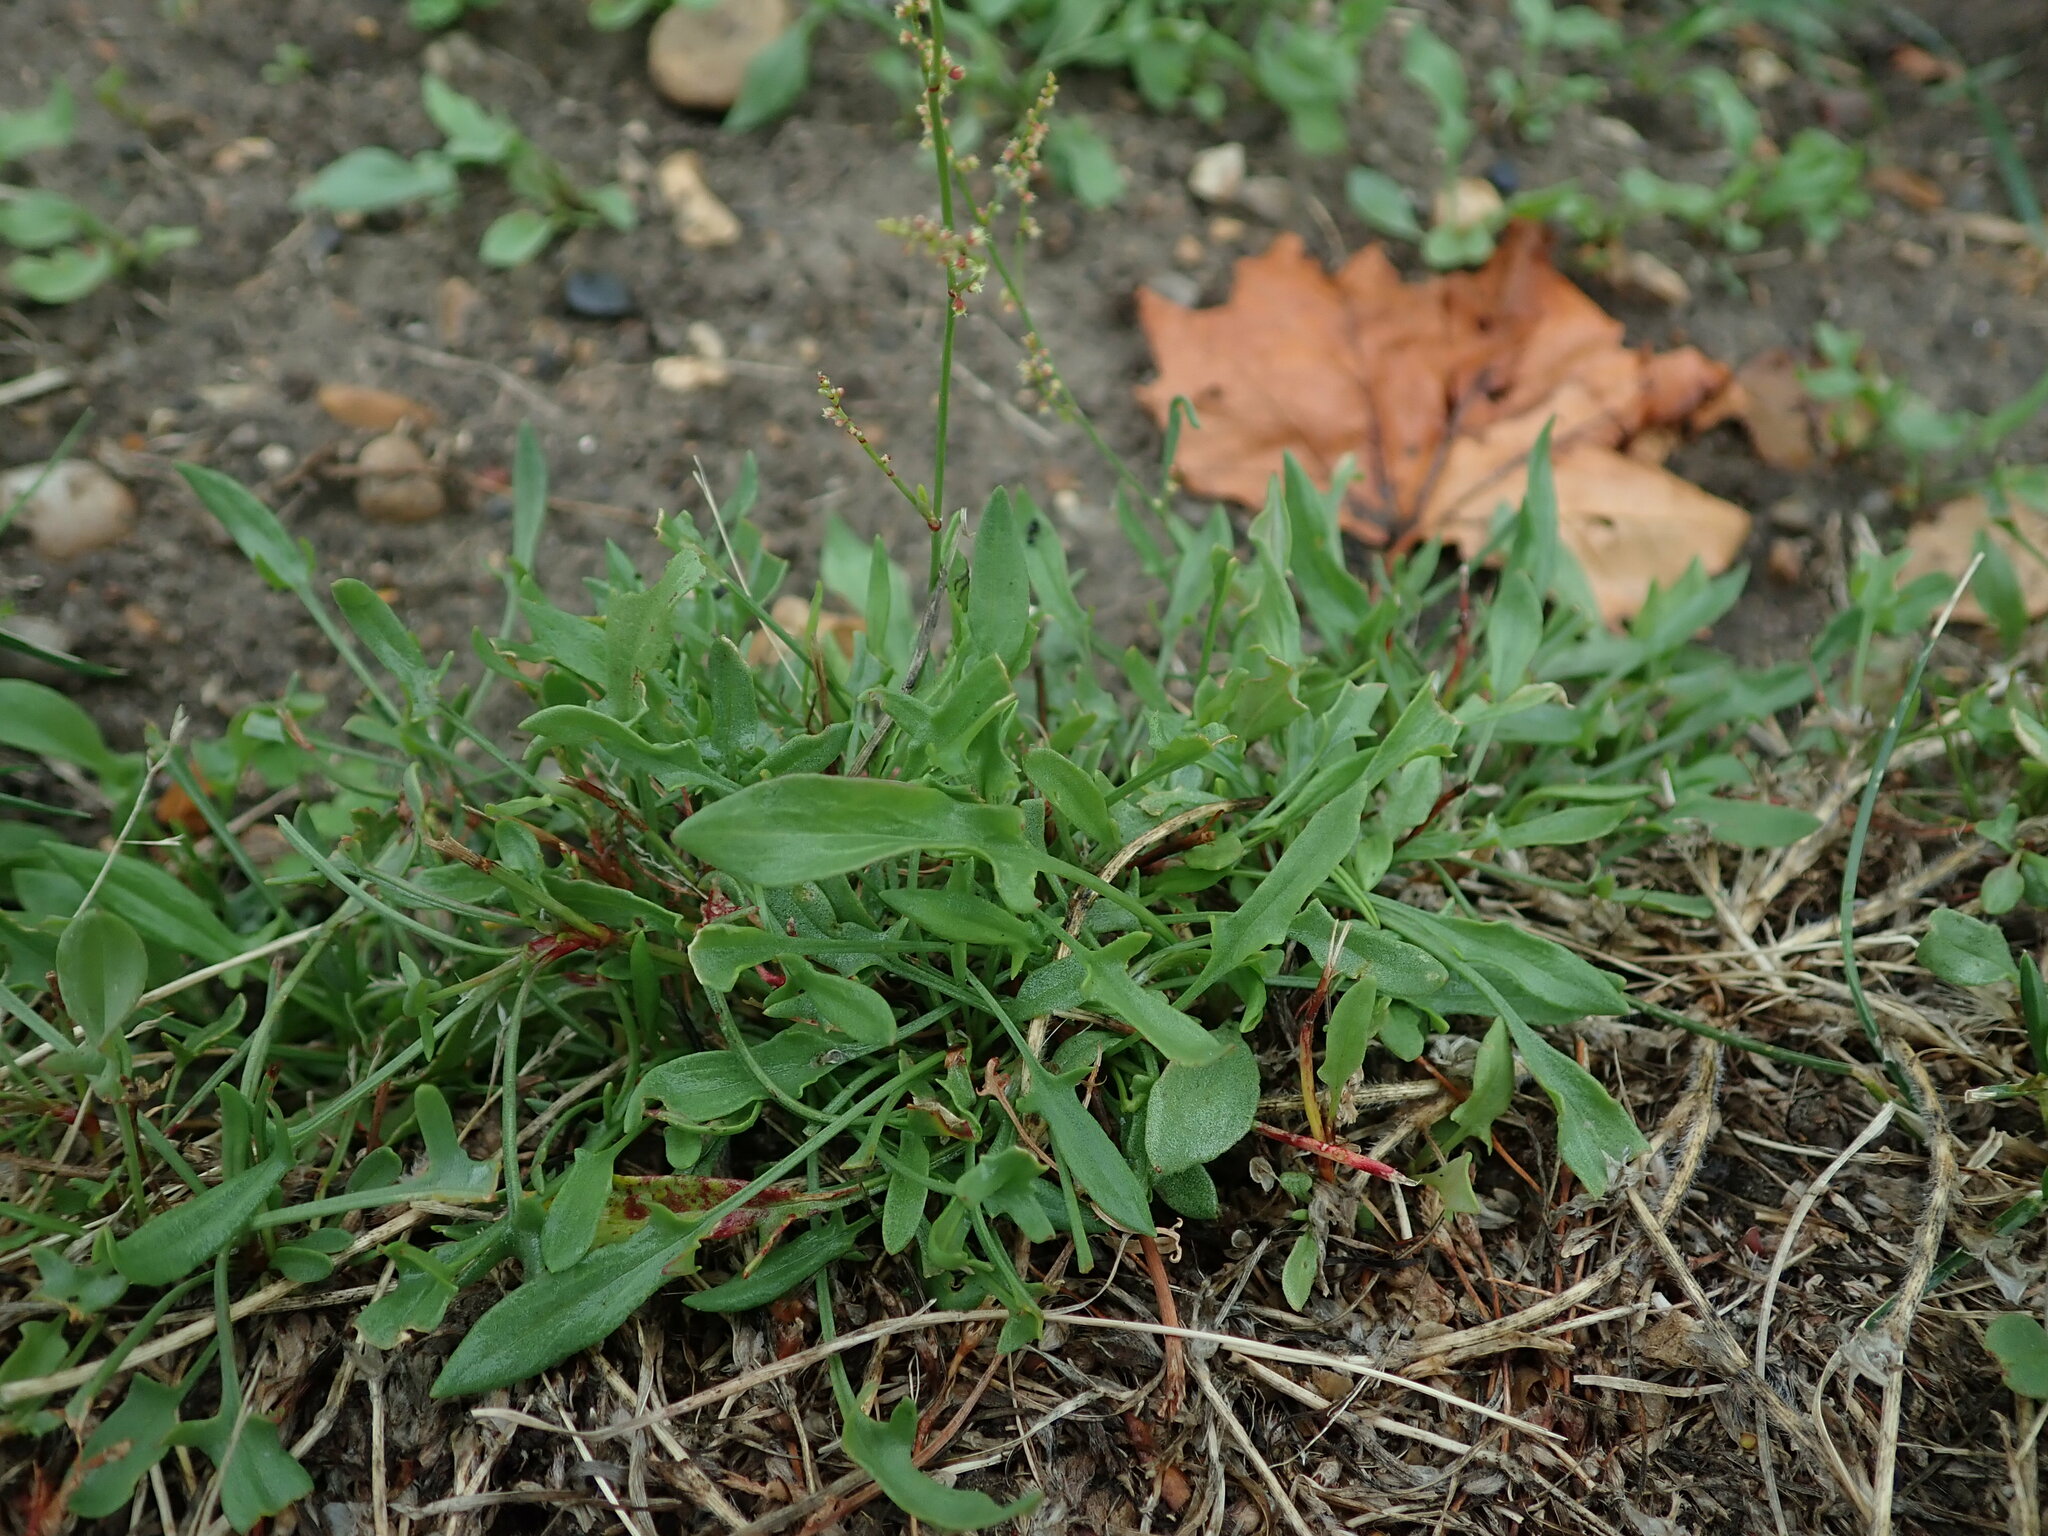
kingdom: Plantae
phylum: Tracheophyta
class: Magnoliopsida
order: Caryophyllales
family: Polygonaceae
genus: Rumex
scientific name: Rumex acetosella
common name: Common sheep sorrel
